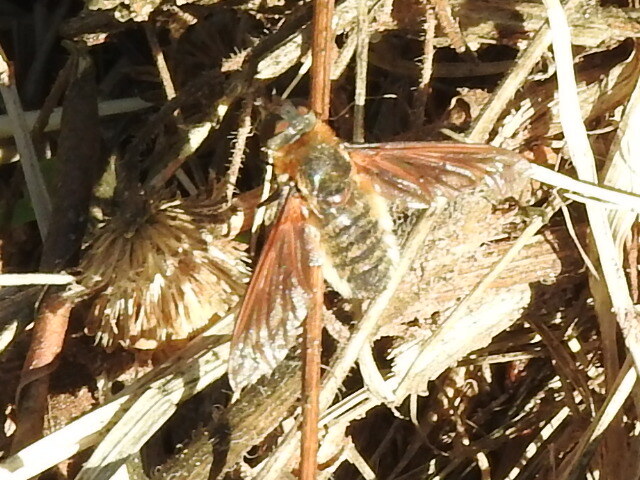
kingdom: Animalia
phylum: Arthropoda
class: Insecta
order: Diptera
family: Bombyliidae
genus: Poecilanthrax
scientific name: Poecilanthrax lucifer
